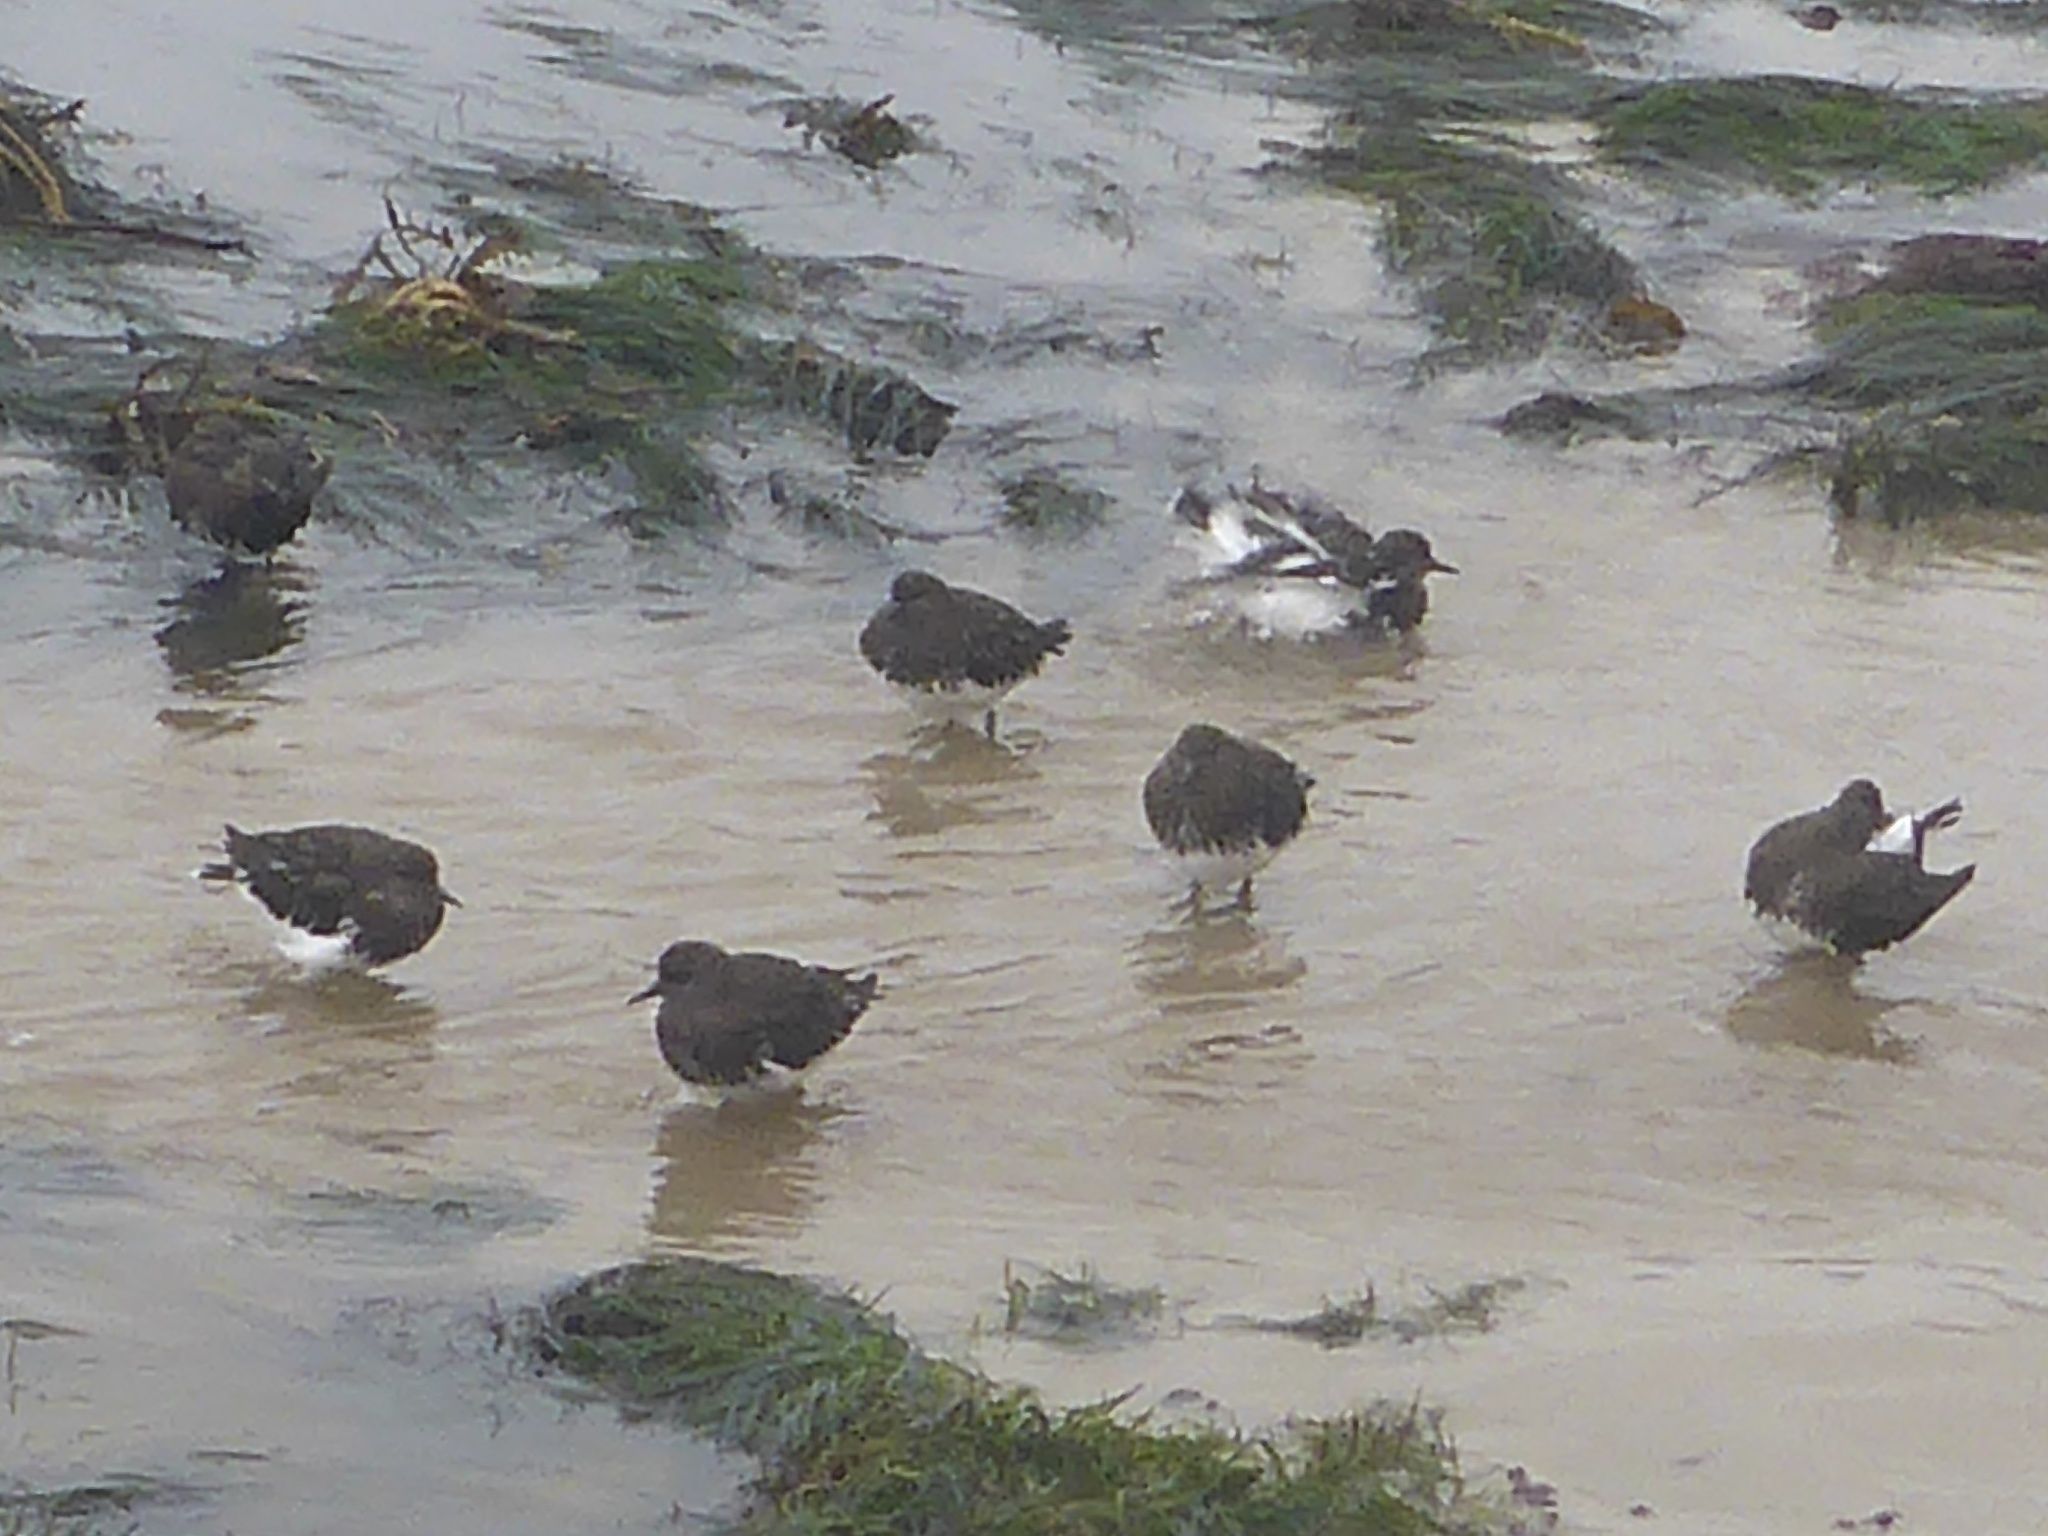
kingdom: Animalia
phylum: Chordata
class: Aves
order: Charadriiformes
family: Scolopacidae
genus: Arenaria
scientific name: Arenaria melanocephala
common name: Black turnstone
